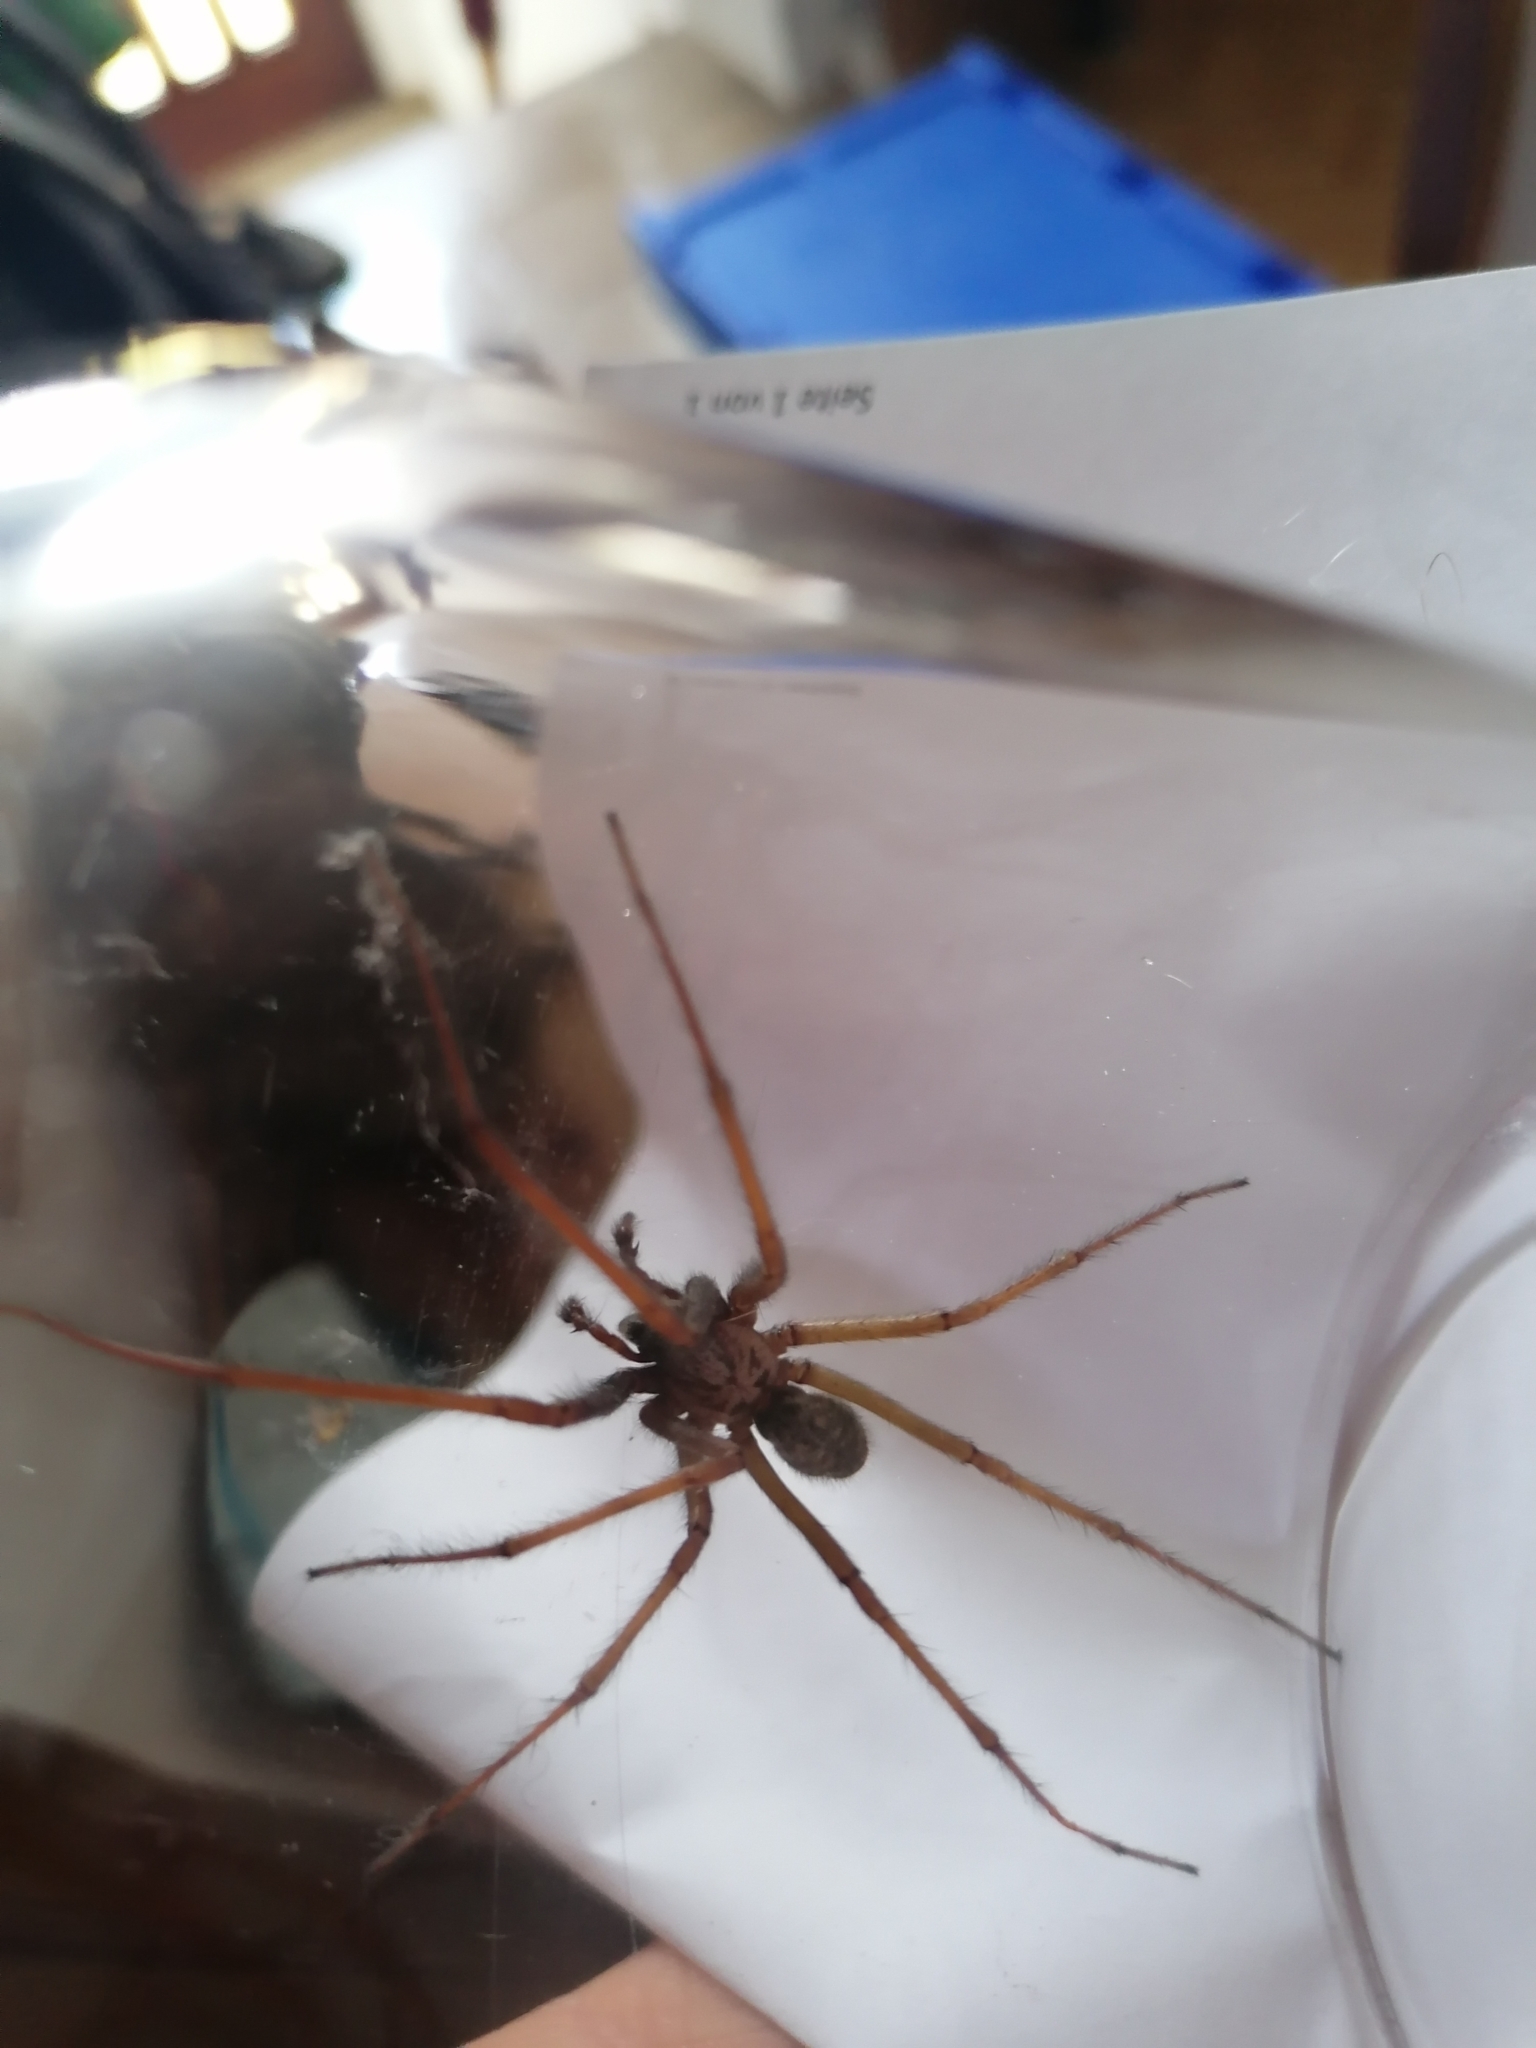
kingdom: Animalia
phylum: Arthropoda
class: Arachnida
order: Araneae
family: Zoropsidae
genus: Zoropsis
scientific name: Zoropsis spinimana
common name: Zoropsid spider
